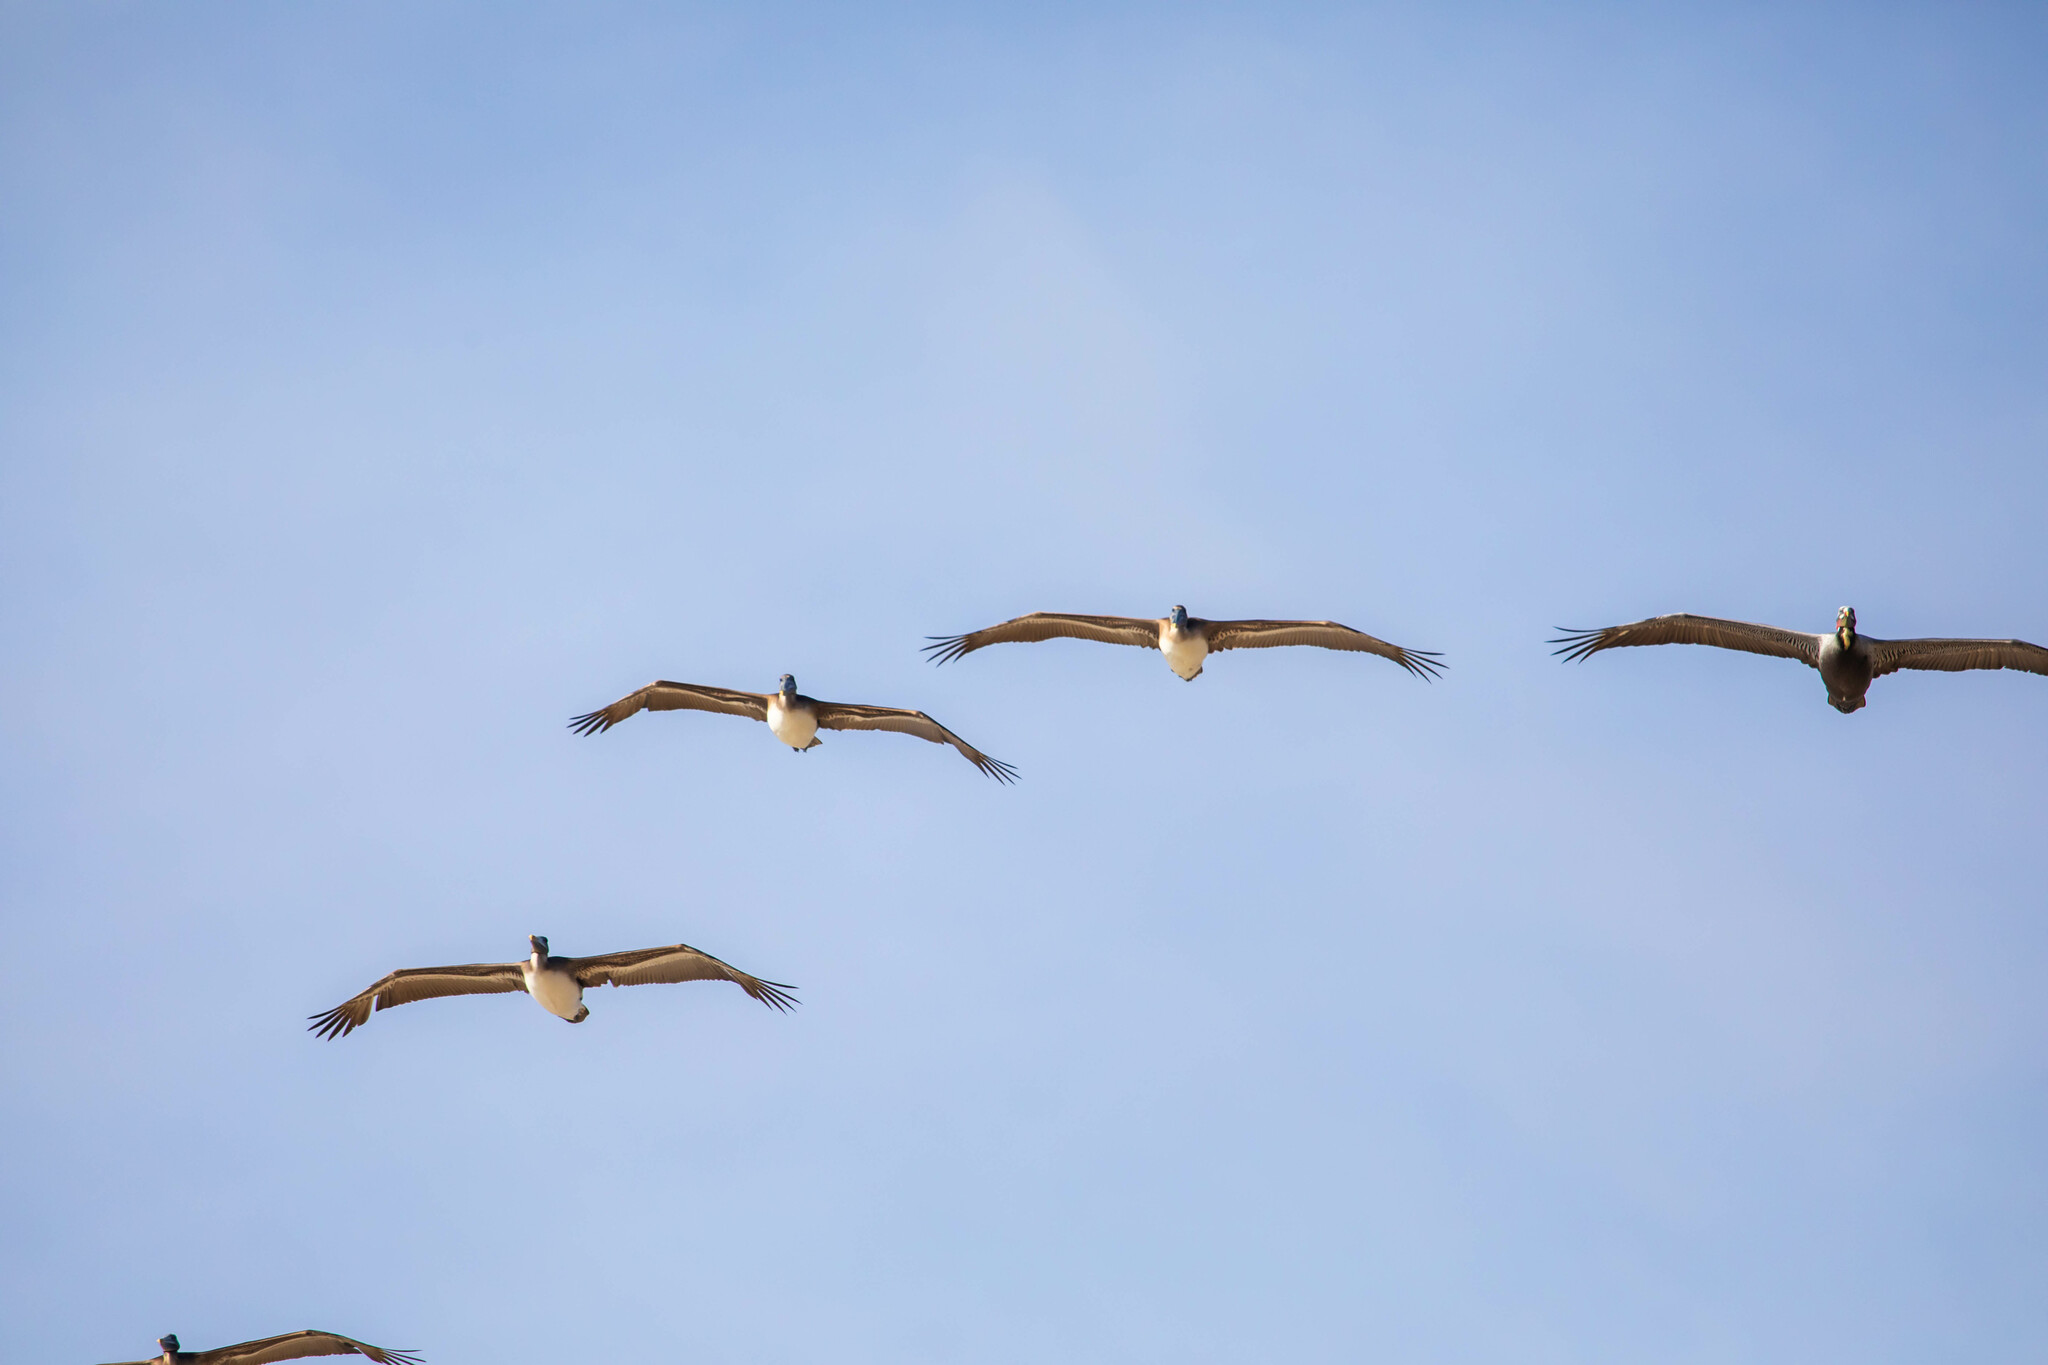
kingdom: Animalia
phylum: Chordata
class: Aves
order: Pelecaniformes
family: Pelecanidae
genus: Pelecanus
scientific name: Pelecanus occidentalis
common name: Brown pelican
